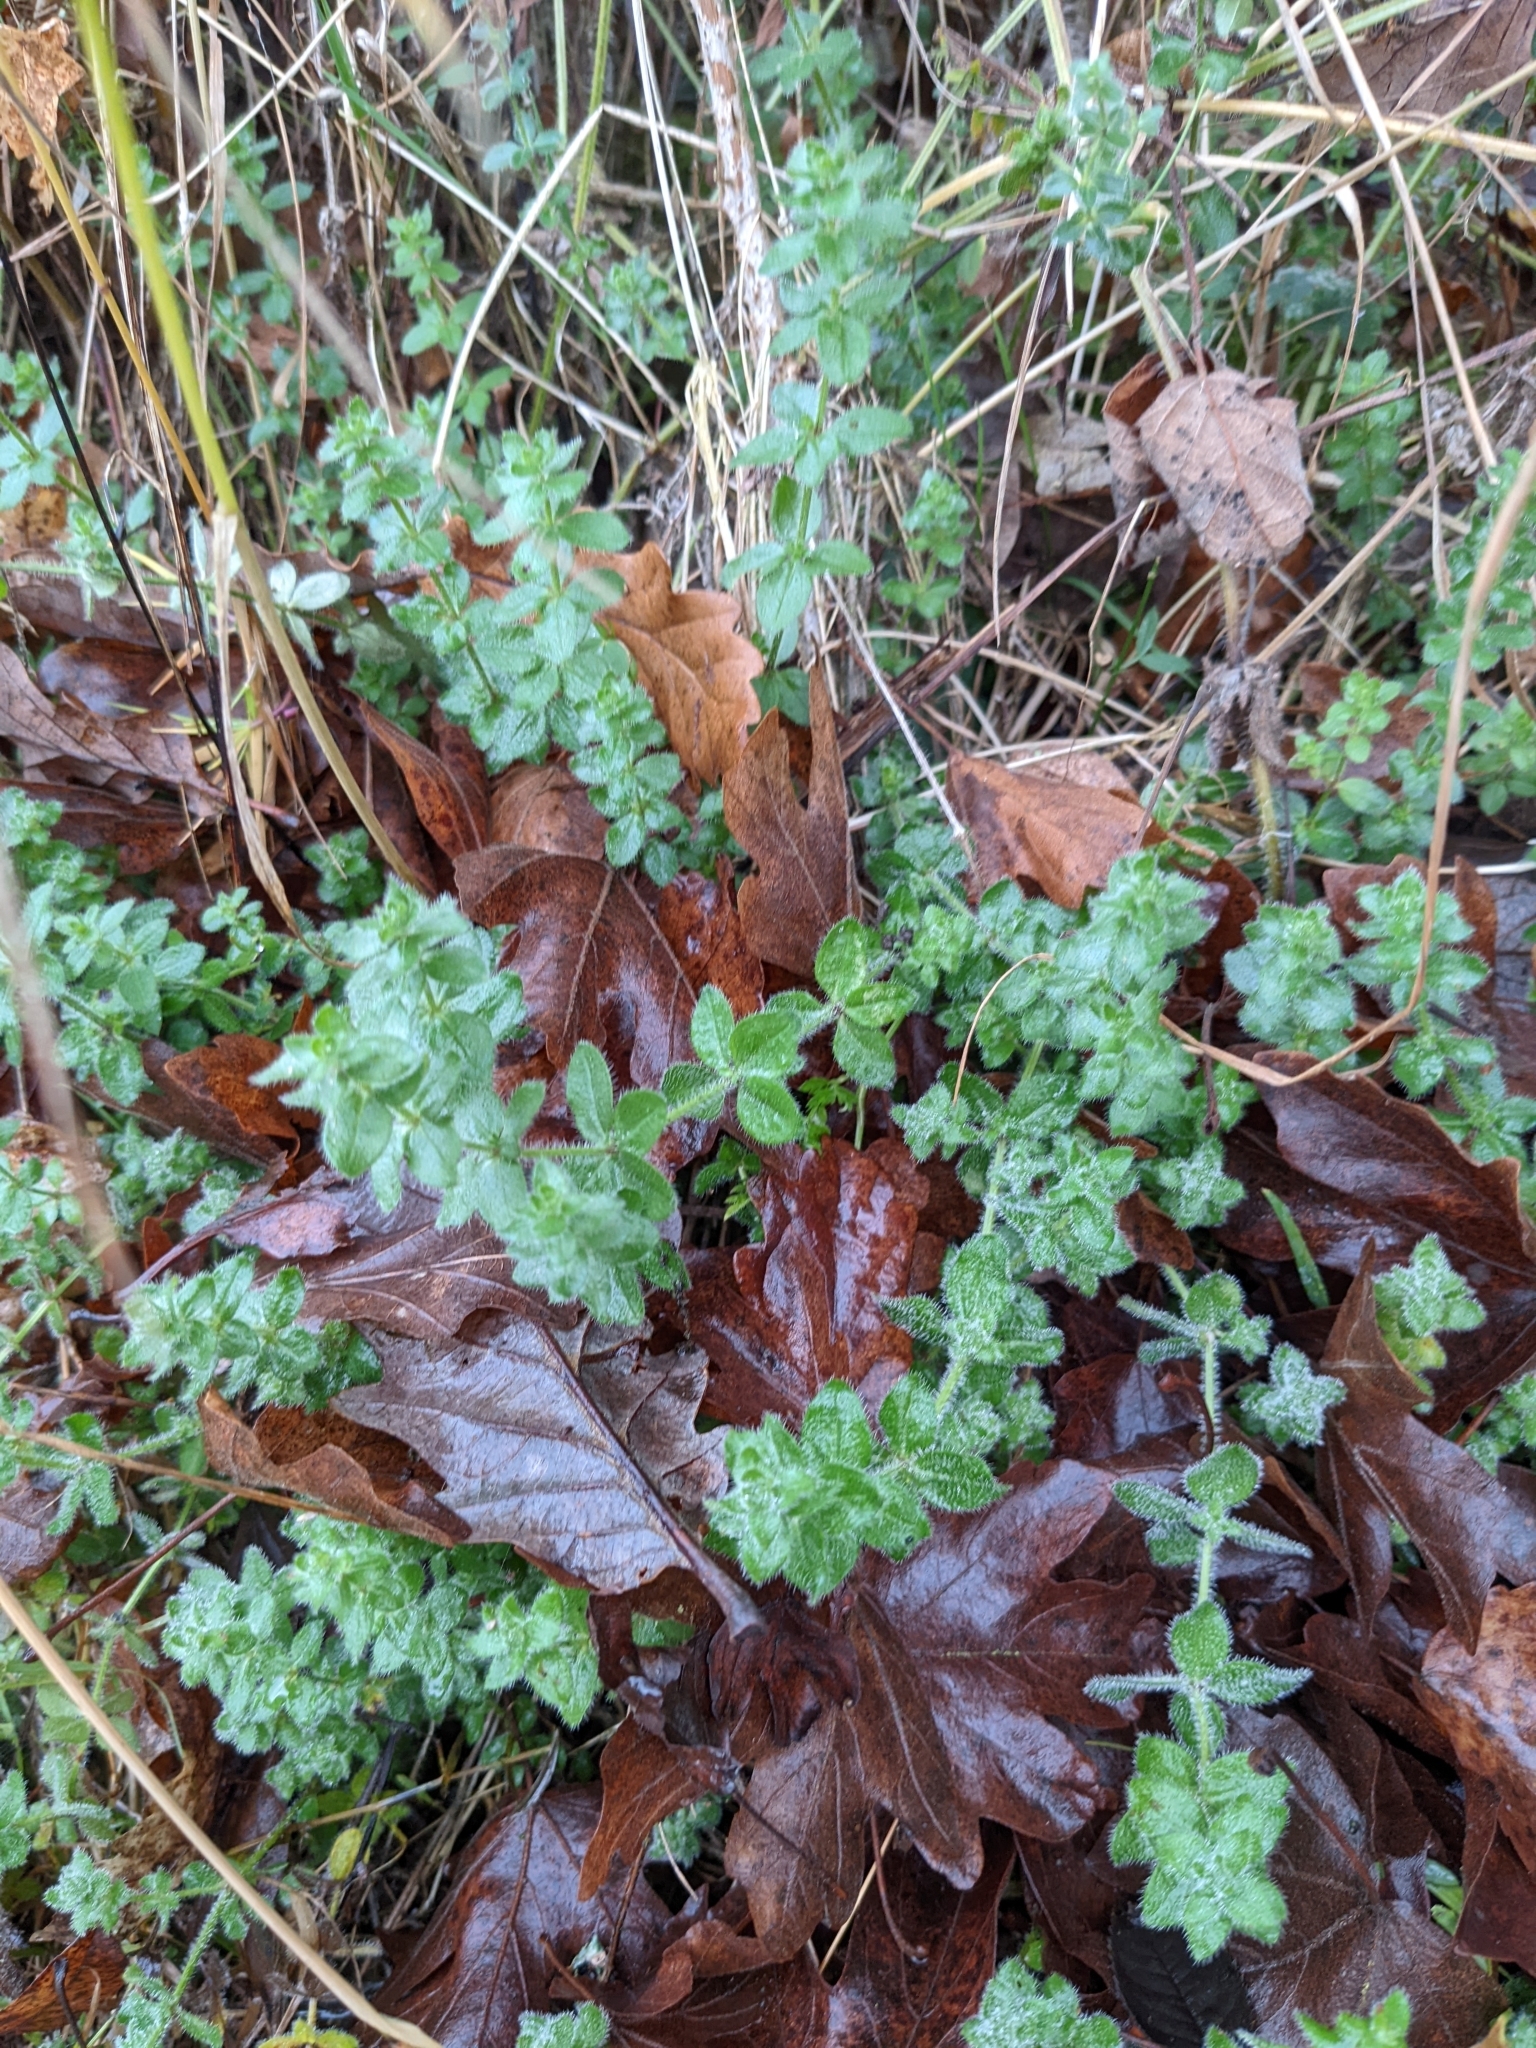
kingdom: Plantae
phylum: Tracheophyta
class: Magnoliopsida
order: Gentianales
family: Rubiaceae
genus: Cruciata
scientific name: Cruciata laevipes
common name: Crosswort
